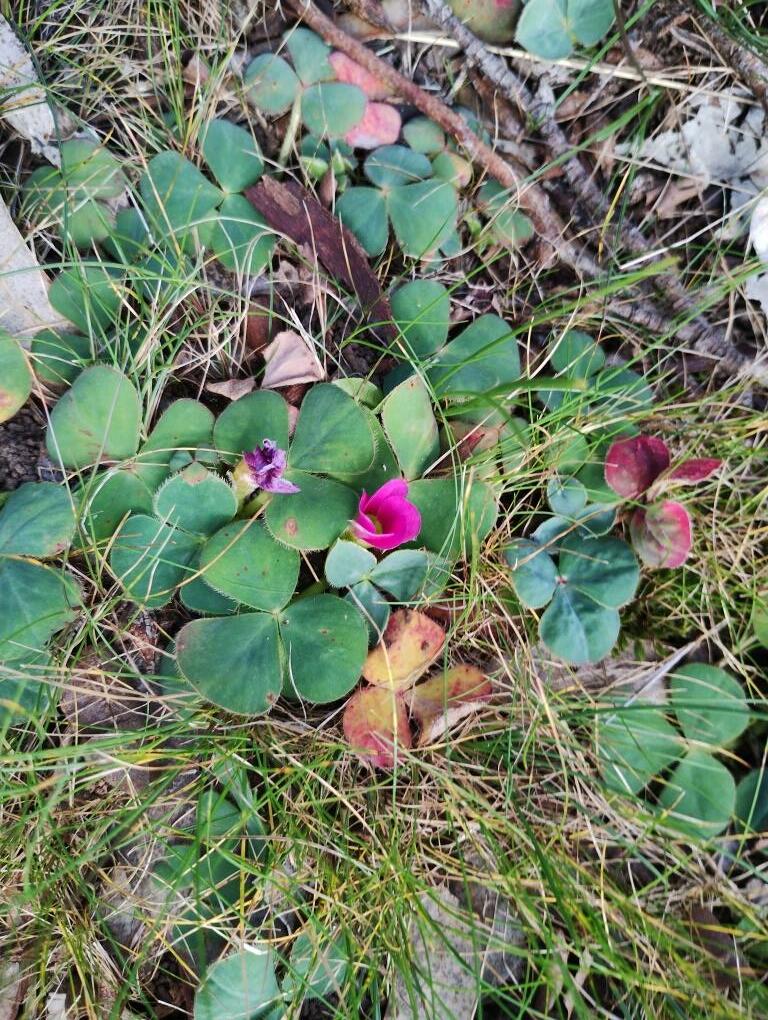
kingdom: Plantae
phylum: Tracheophyta
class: Magnoliopsida
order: Oxalidales
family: Oxalidaceae
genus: Oxalis
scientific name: Oxalis purpurea
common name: Purple woodsorrel
